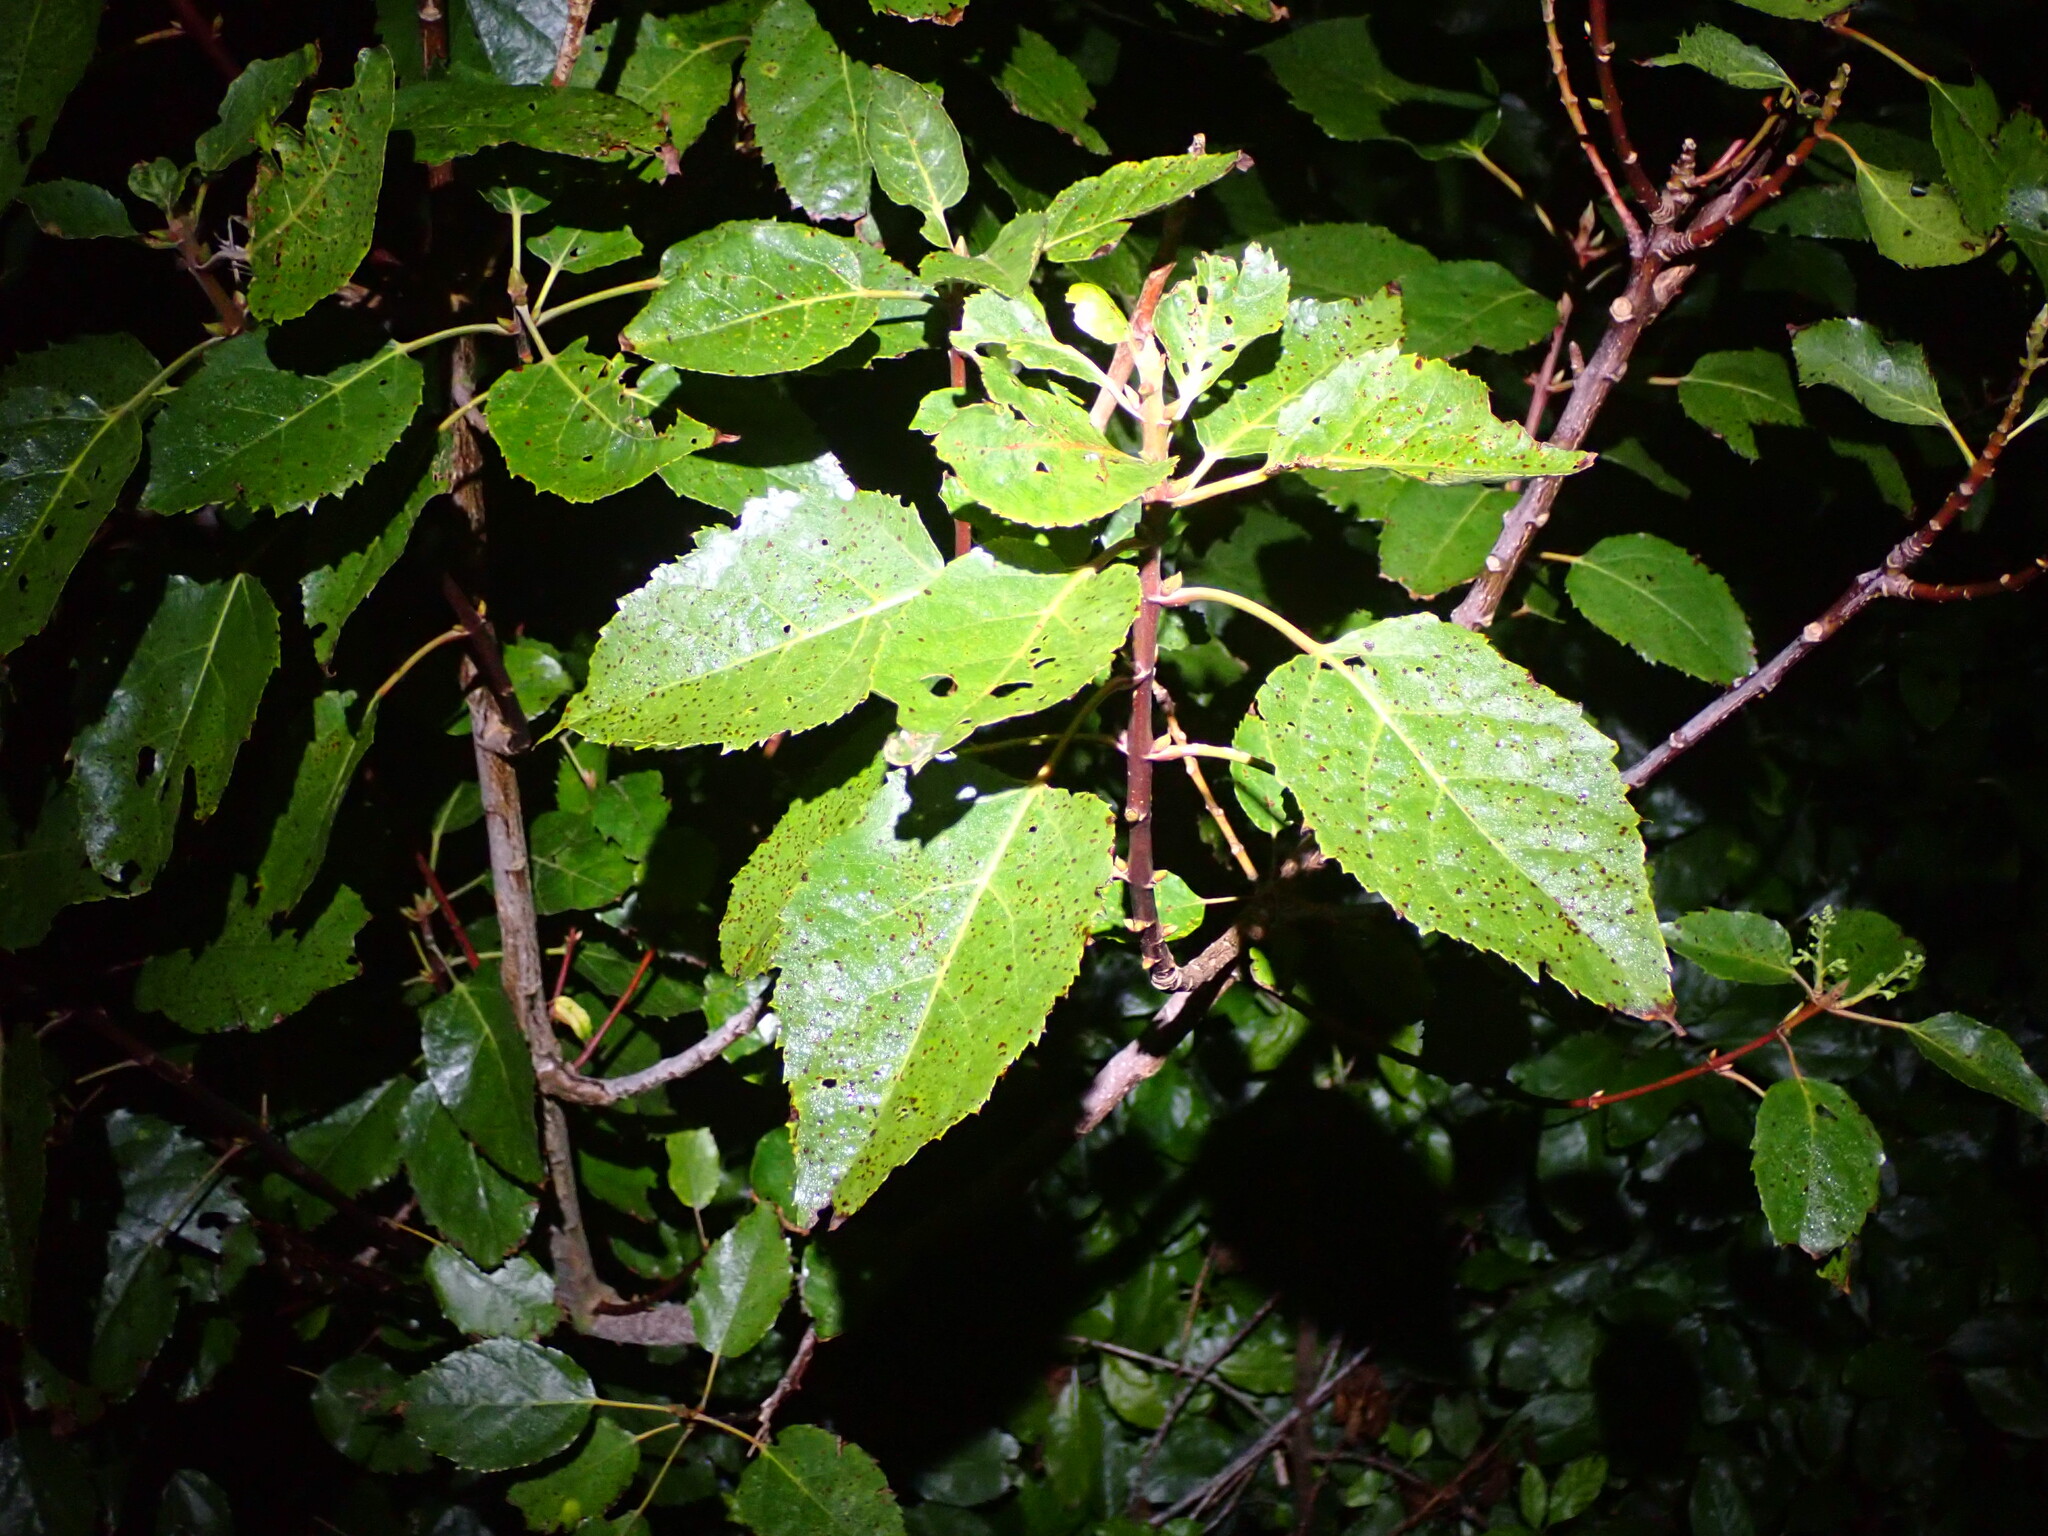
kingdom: Plantae
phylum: Tracheophyta
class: Magnoliopsida
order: Oxalidales
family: Elaeocarpaceae
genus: Aristotelia
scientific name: Aristotelia serrata
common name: New zealand wineberry
